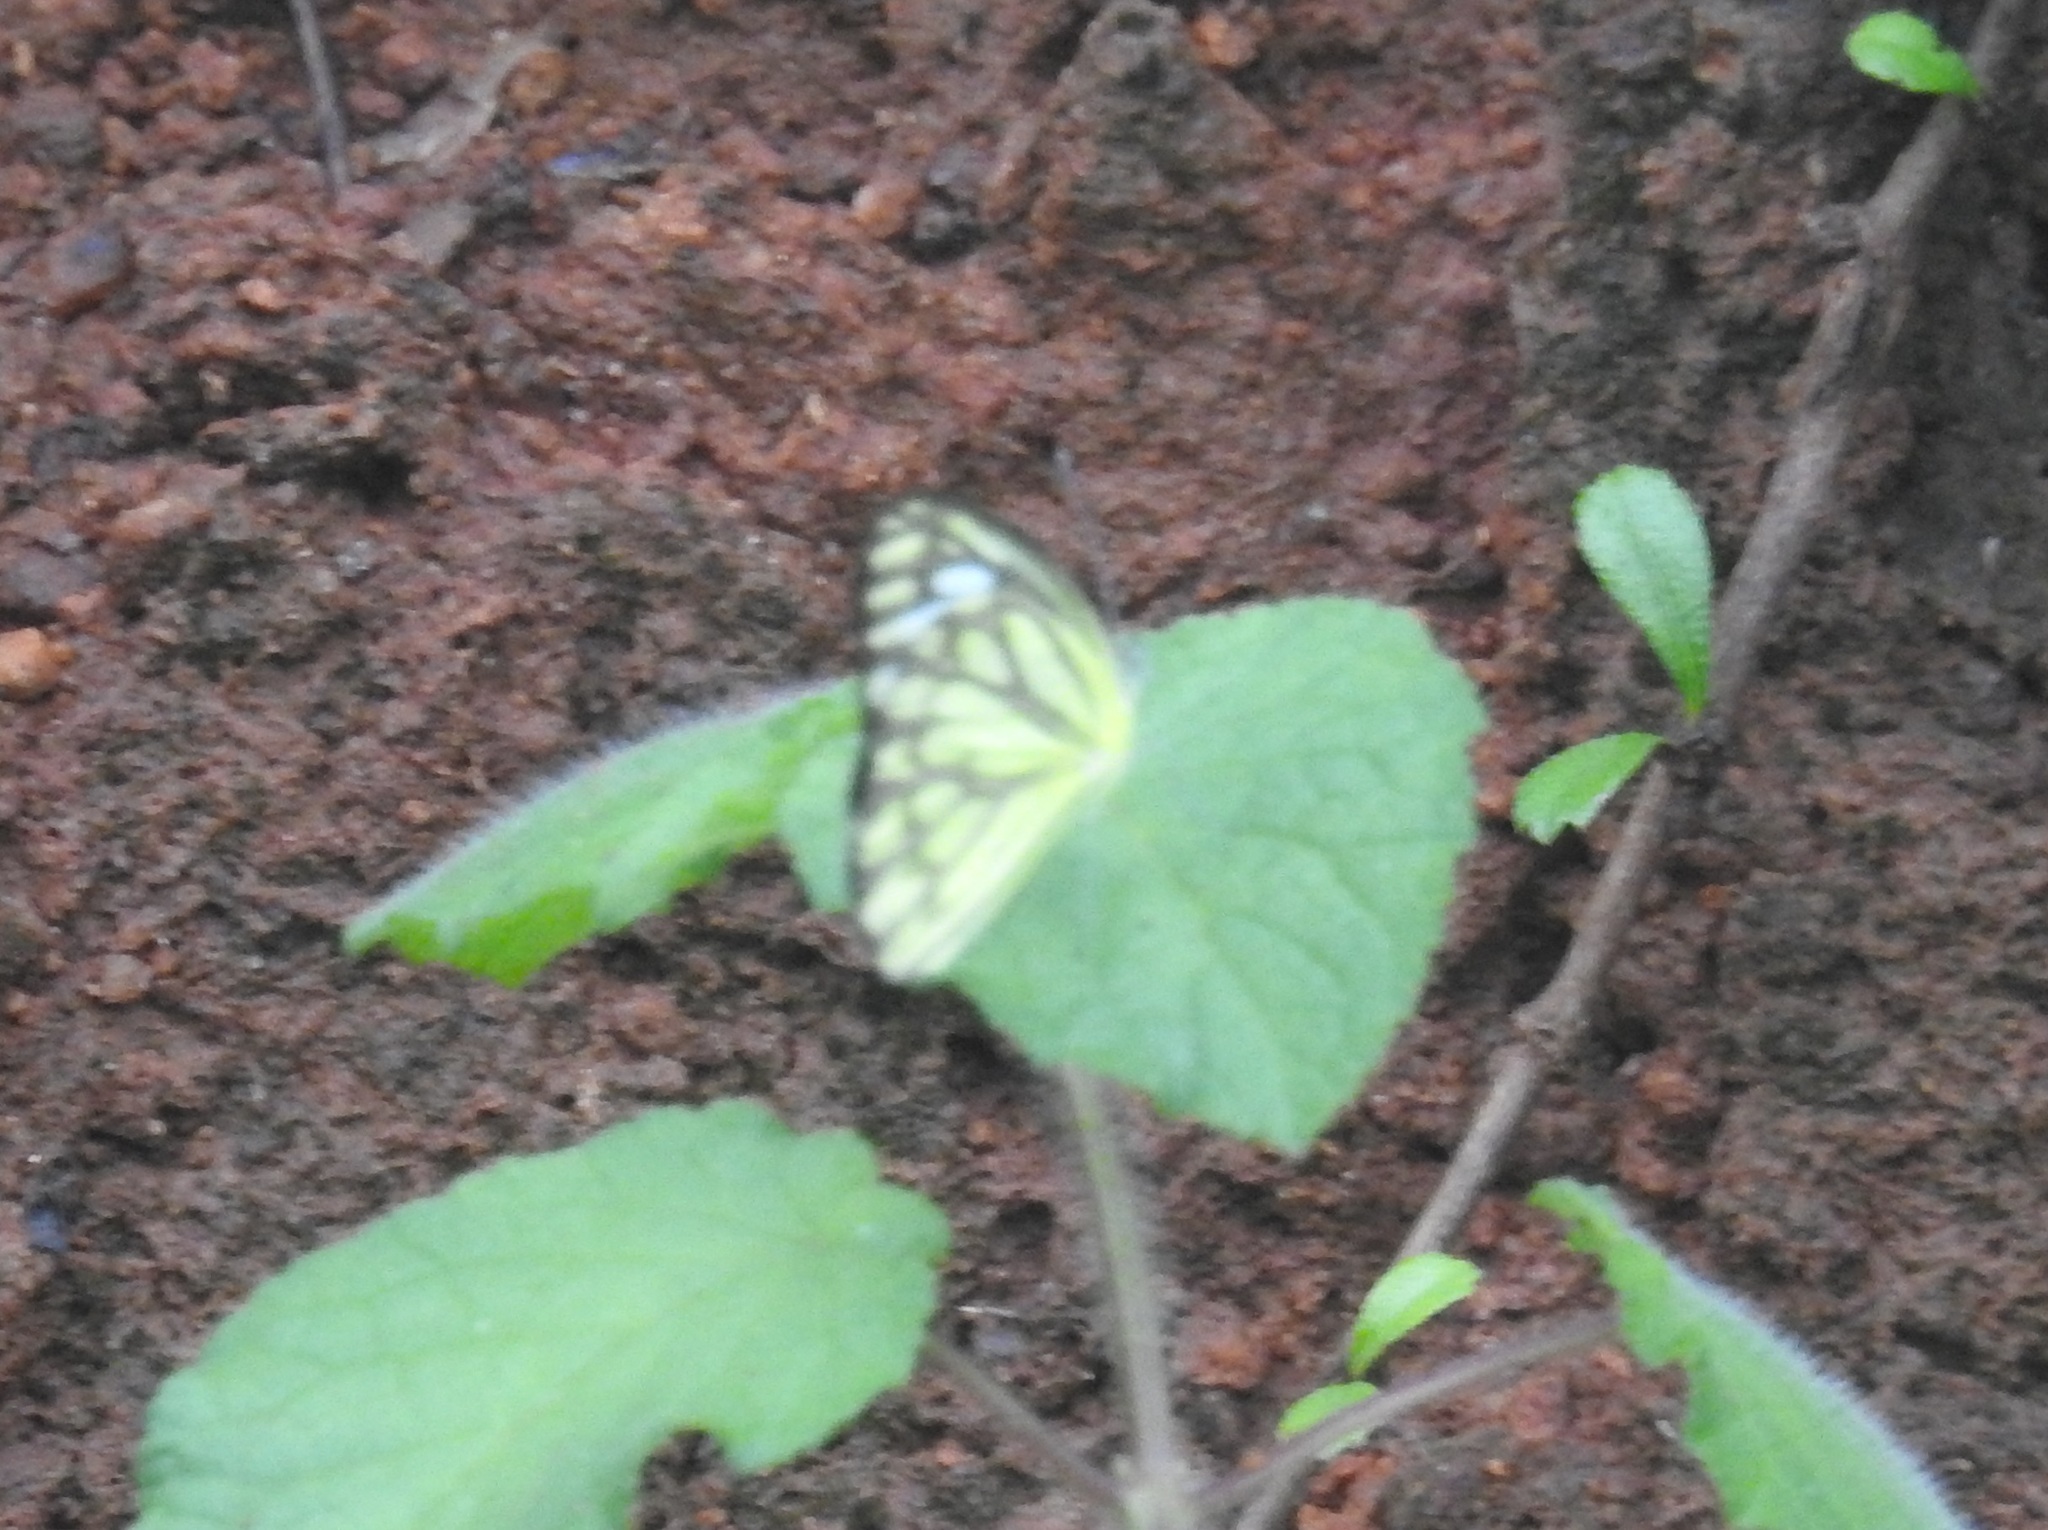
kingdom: Animalia
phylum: Arthropoda
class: Insecta
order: Lepidoptera
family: Pieridae
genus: Cepora
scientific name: Cepora nerissa
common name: Common gull
